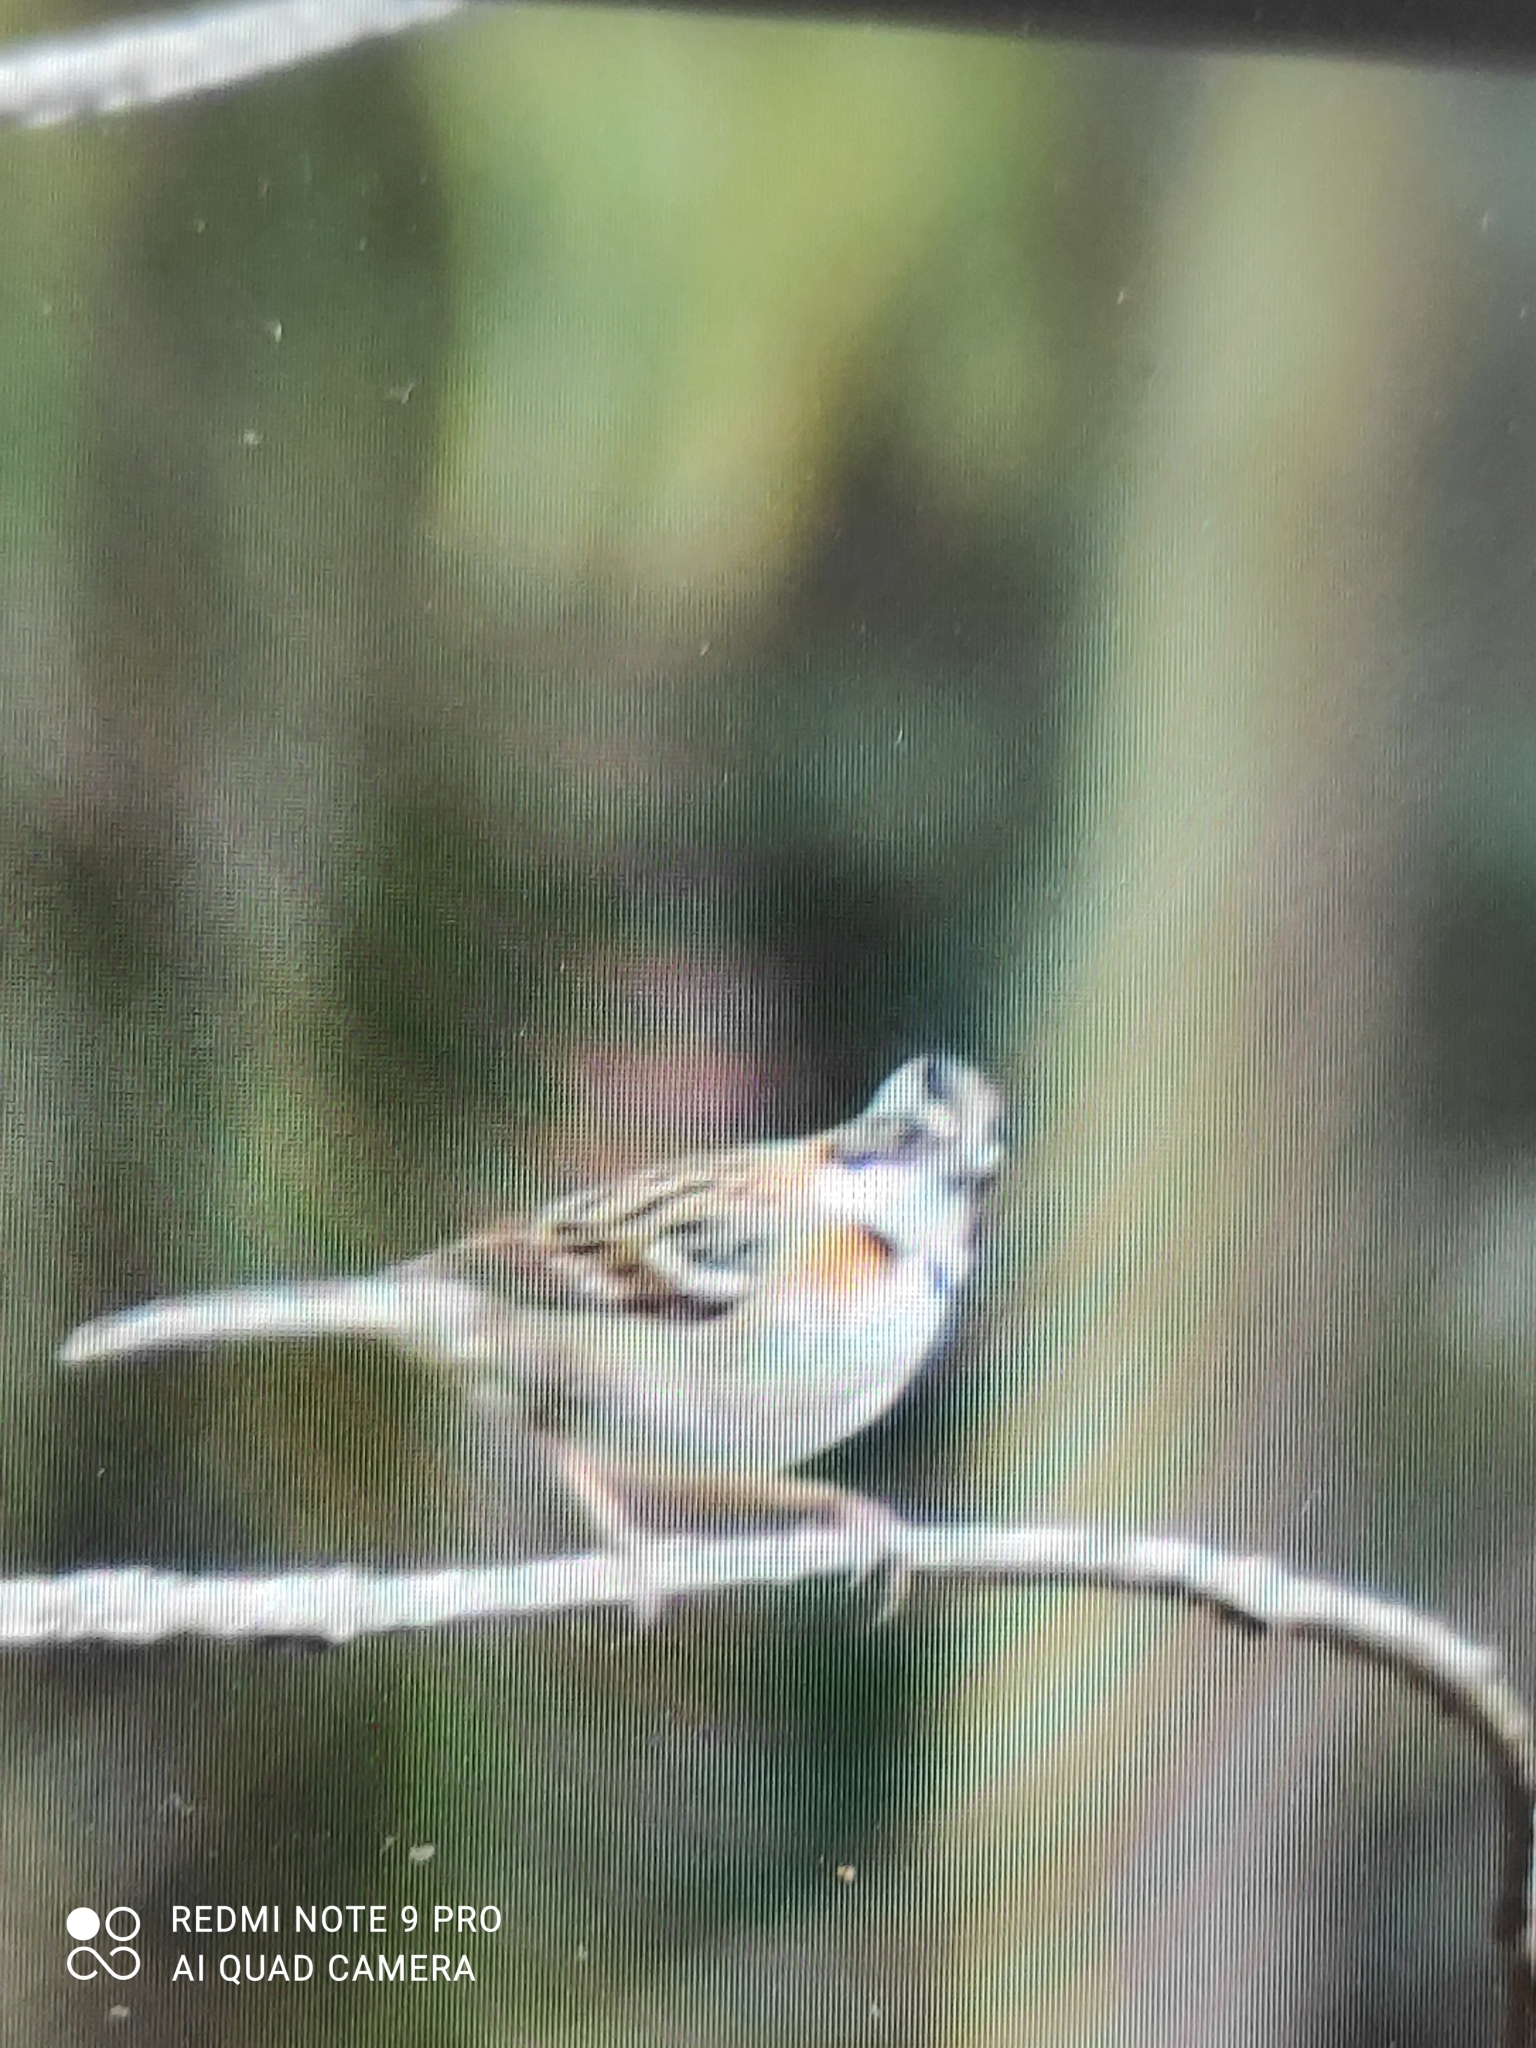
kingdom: Animalia
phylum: Chordata
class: Aves
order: Passeriformes
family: Passerellidae
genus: Zonotrichia
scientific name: Zonotrichia capensis
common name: Rufous-collared sparrow
